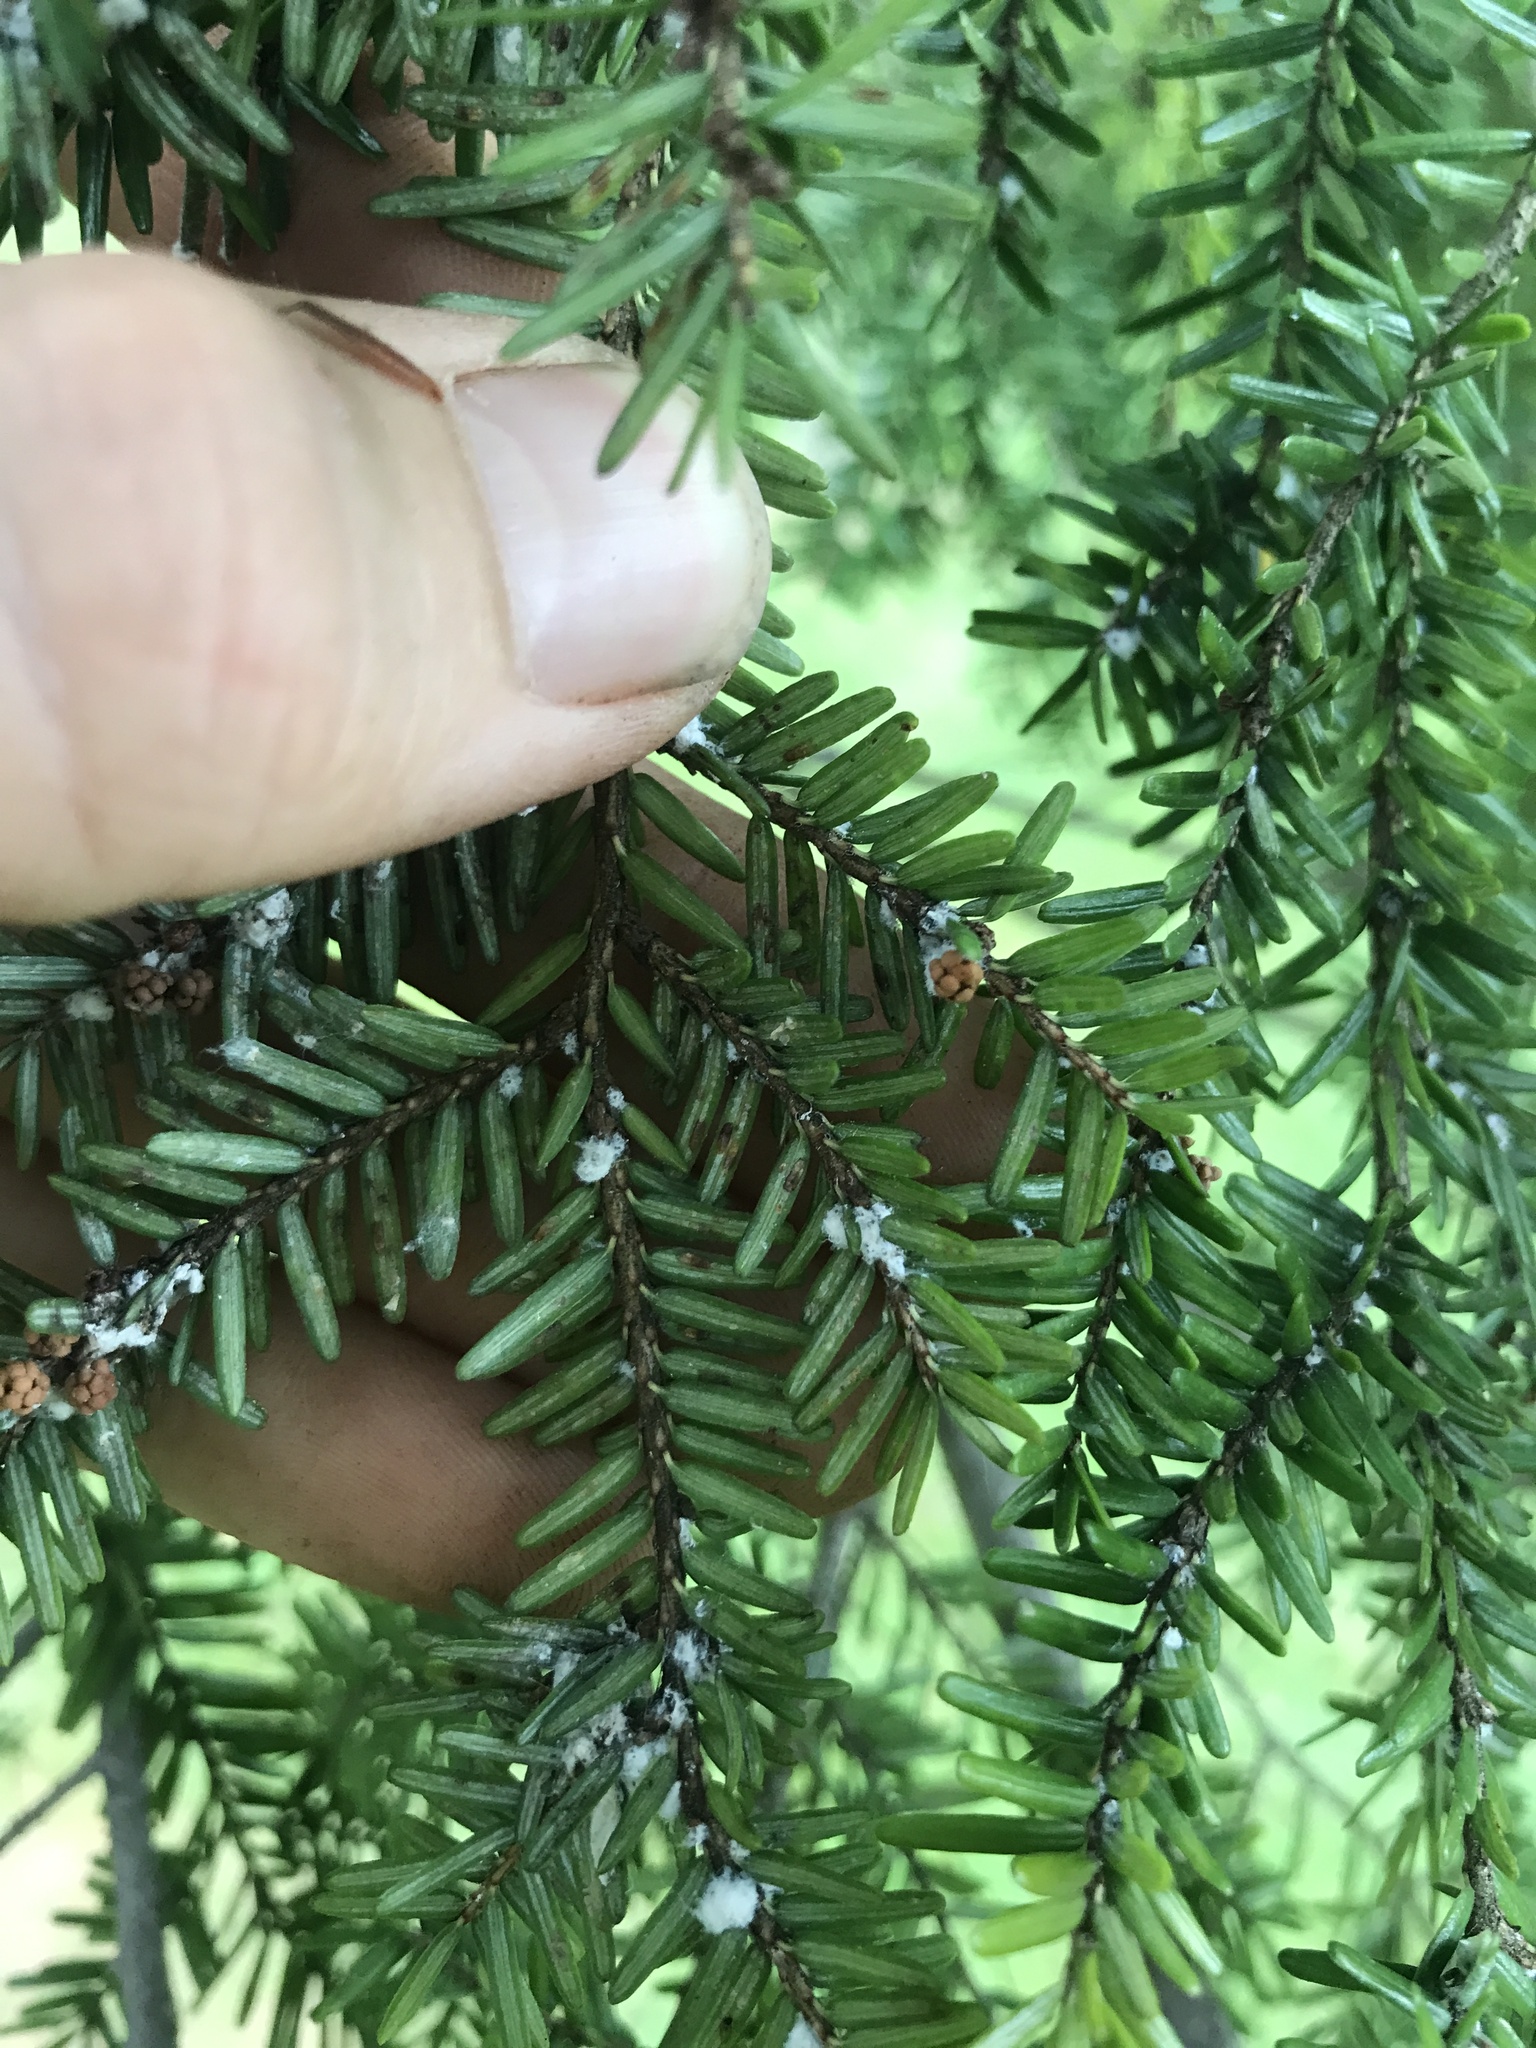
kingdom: Animalia
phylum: Arthropoda
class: Insecta
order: Hemiptera
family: Adelgidae
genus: Adelges
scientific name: Adelges tsugae
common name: Hemlock woolly adelgid
